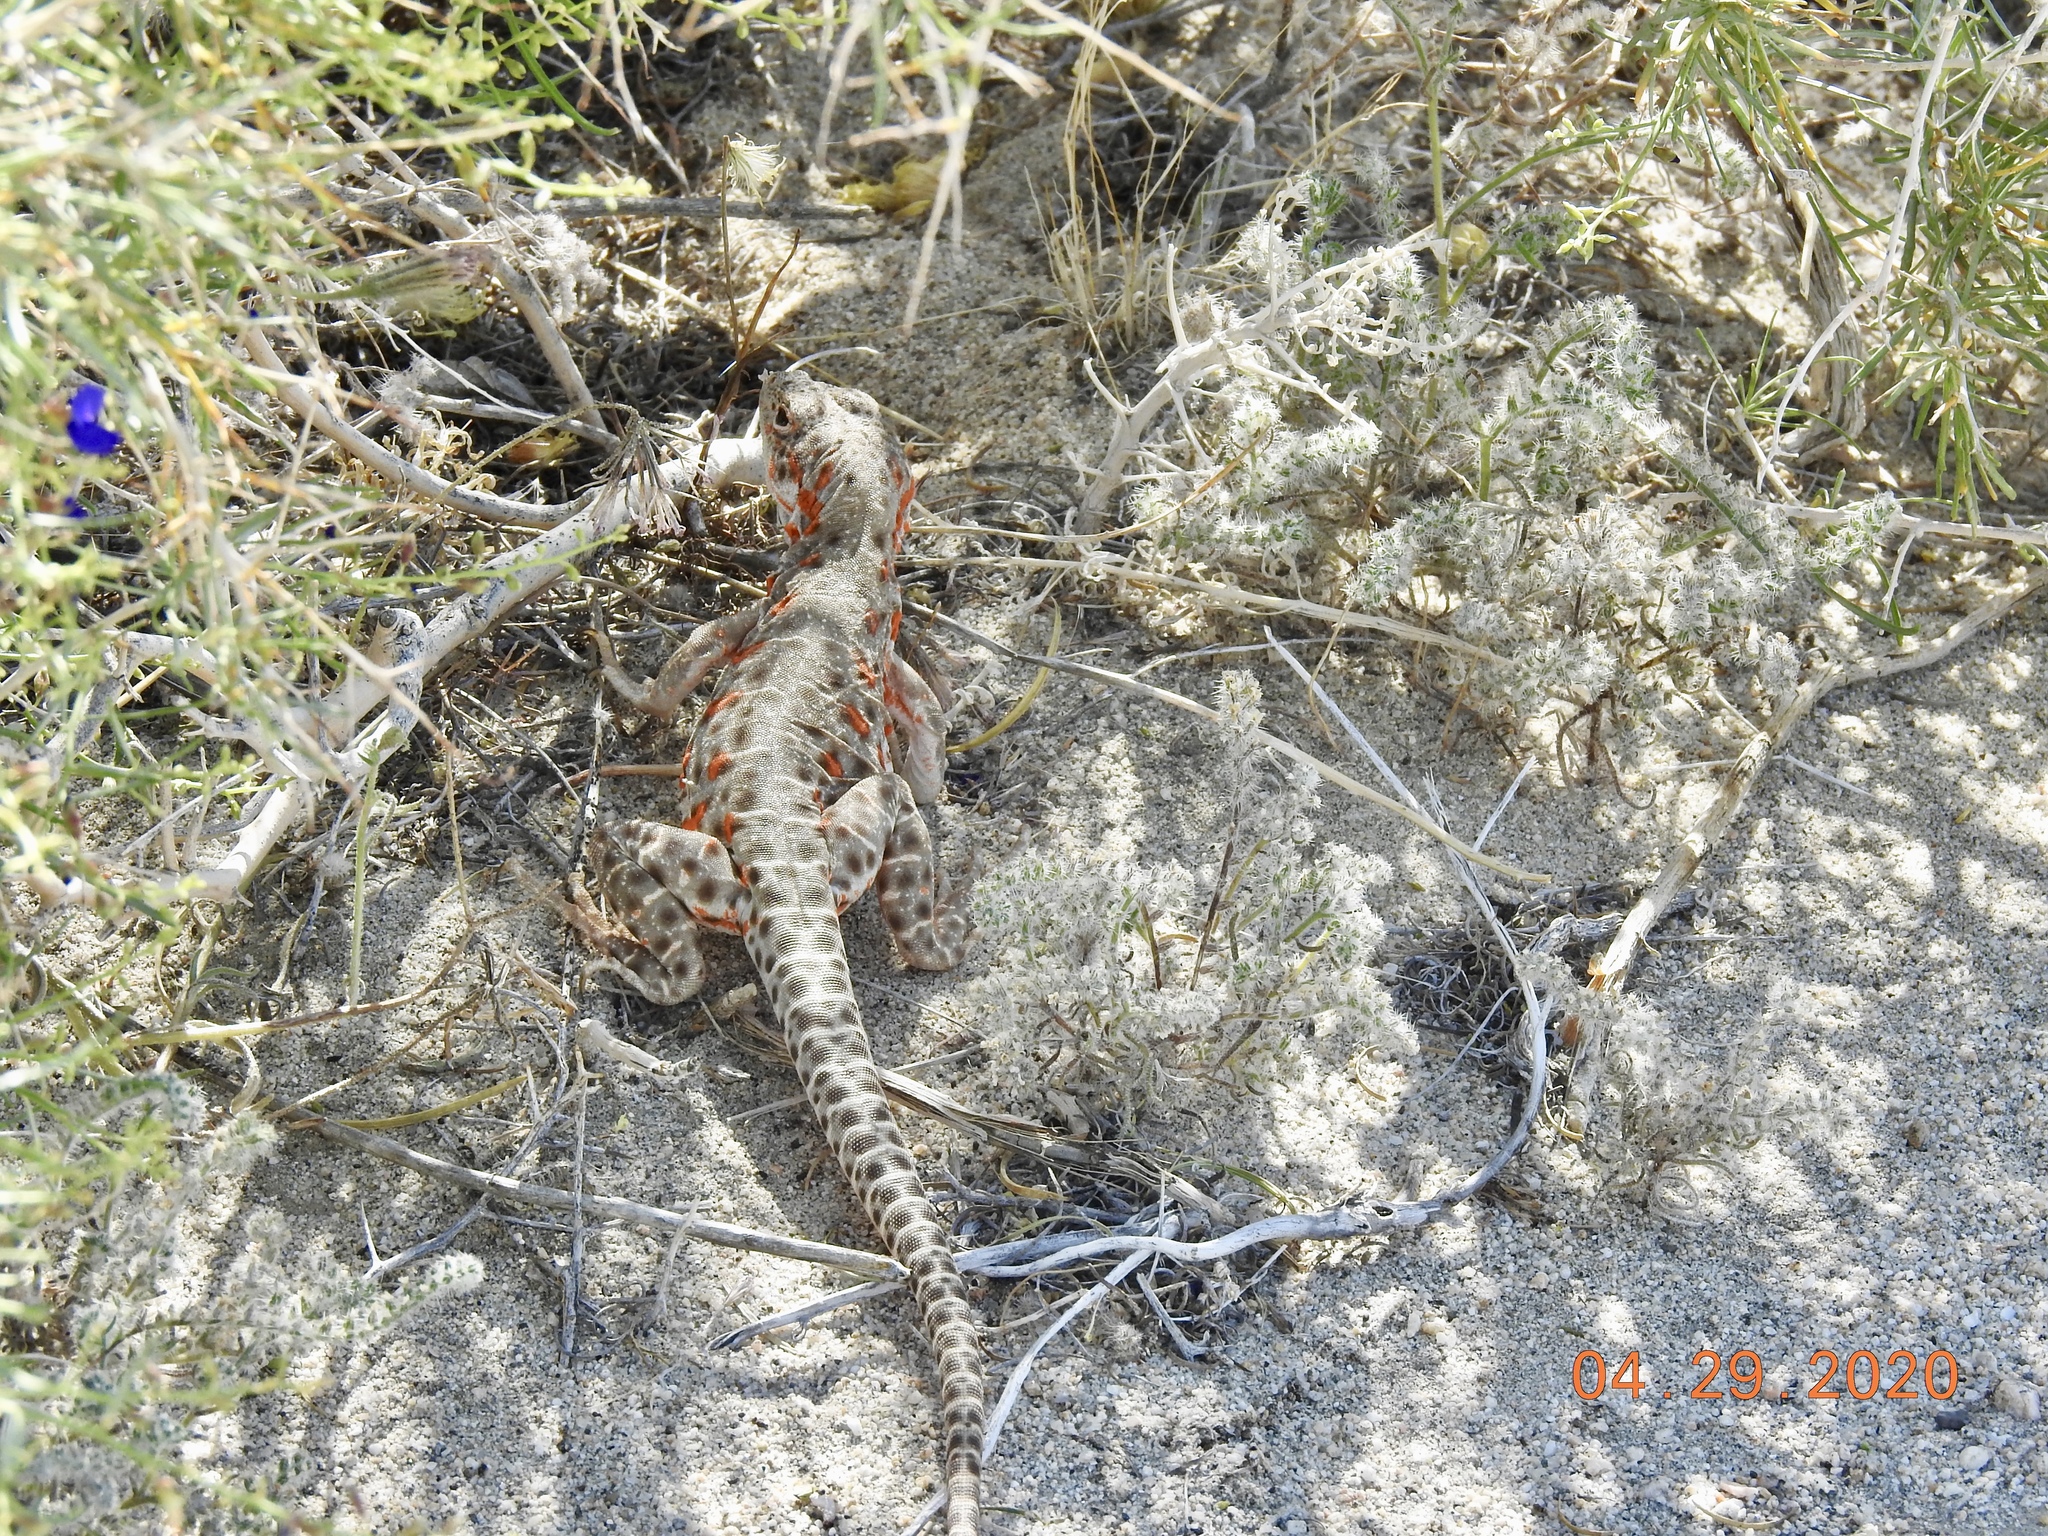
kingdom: Animalia
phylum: Chordata
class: Squamata
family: Crotaphytidae
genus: Gambelia
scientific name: Gambelia wislizenii
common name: Longnose leopard lizard
